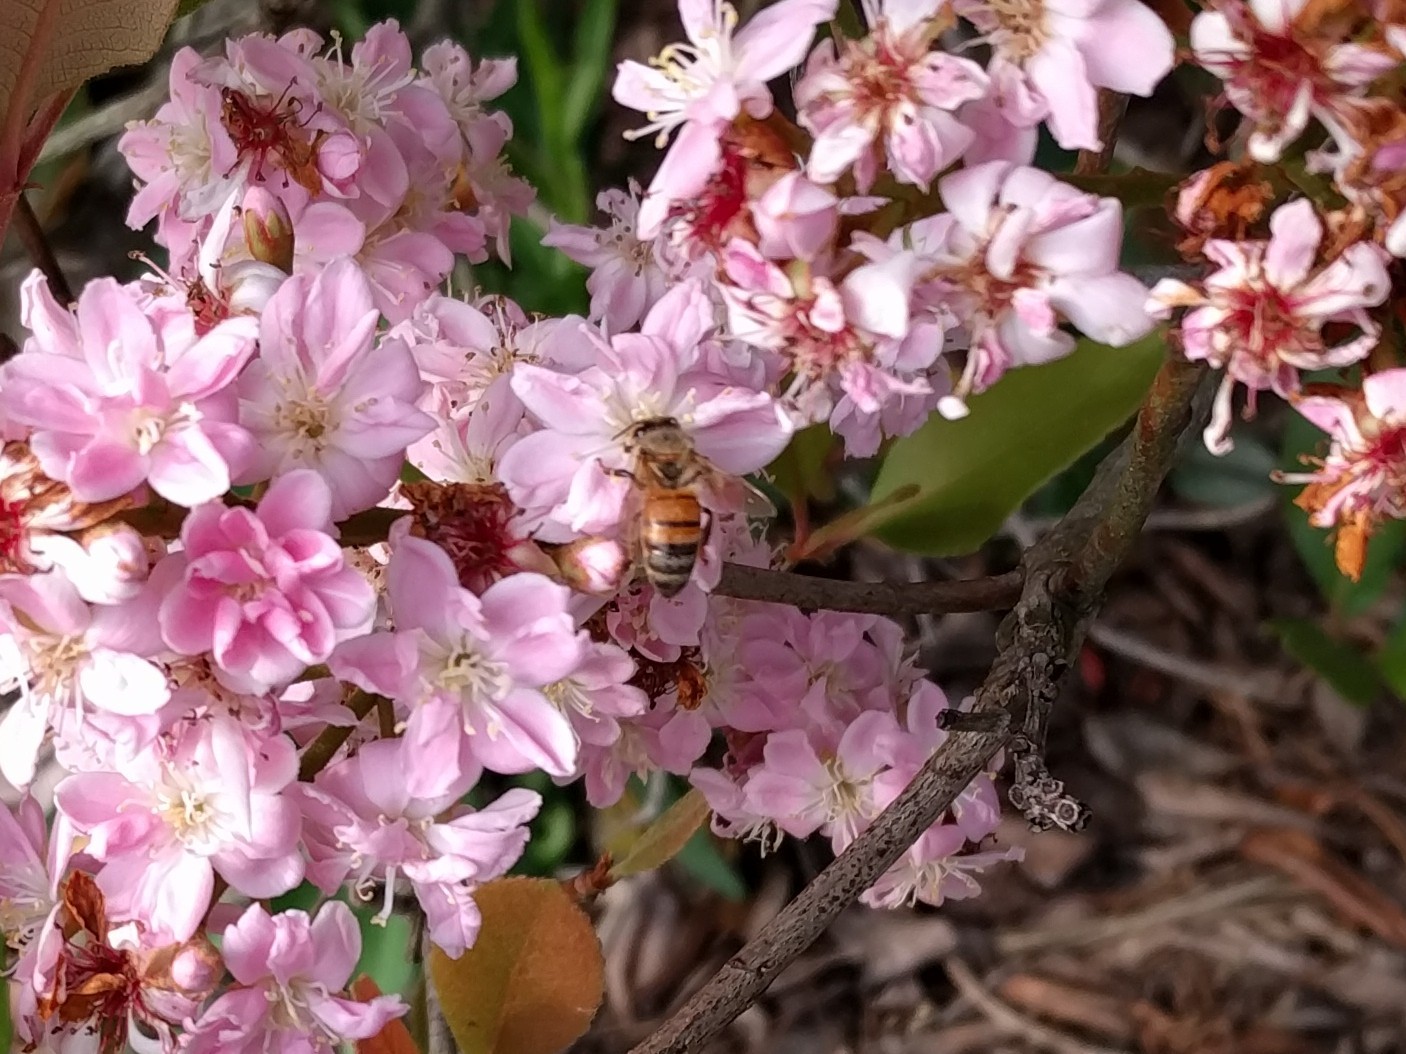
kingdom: Animalia
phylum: Arthropoda
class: Insecta
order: Hymenoptera
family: Apidae
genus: Apis
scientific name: Apis mellifera
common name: Honey bee
